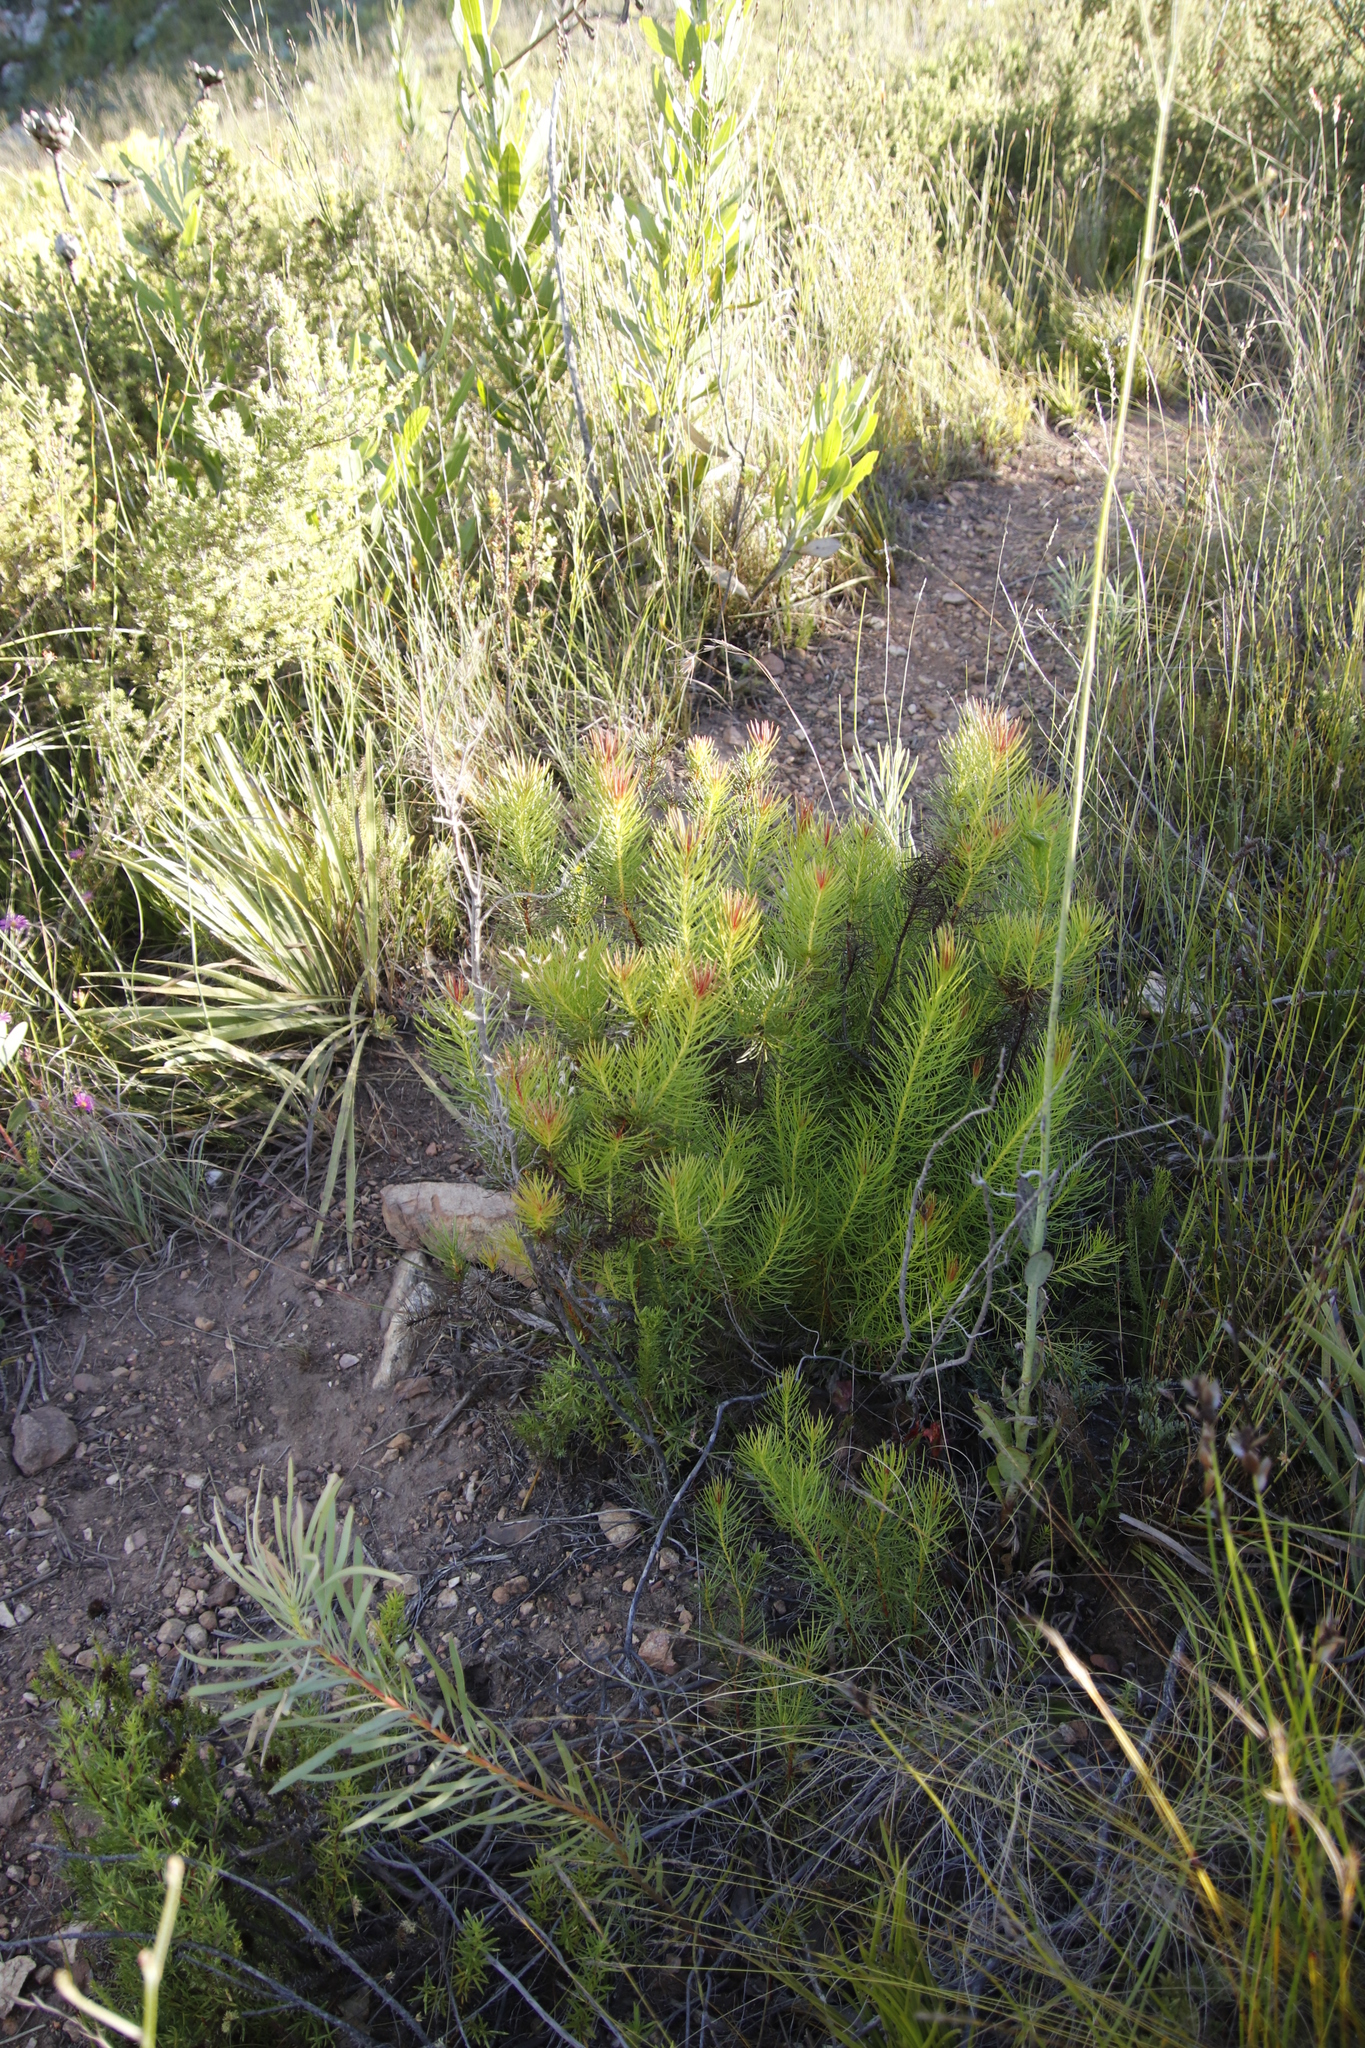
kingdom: Plantae
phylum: Tracheophyta
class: Magnoliopsida
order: Proteales
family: Proteaceae
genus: Protea
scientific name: Protea subulifolia
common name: Awl-leaf sugarbush
